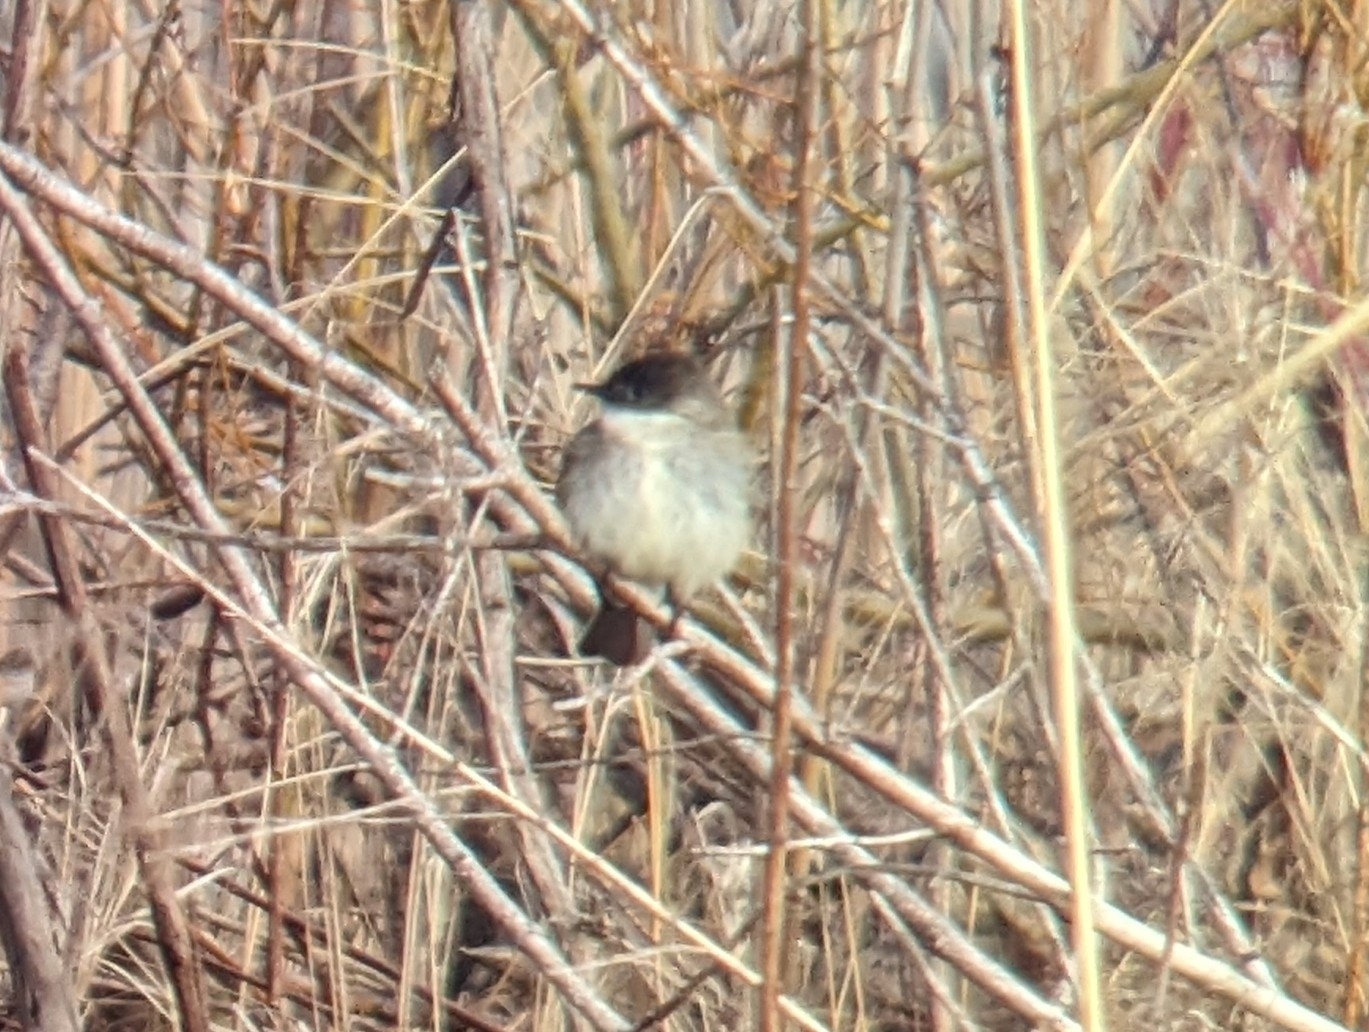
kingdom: Animalia
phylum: Chordata
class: Aves
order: Passeriformes
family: Tyrannidae
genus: Sayornis
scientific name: Sayornis phoebe
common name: Eastern phoebe
